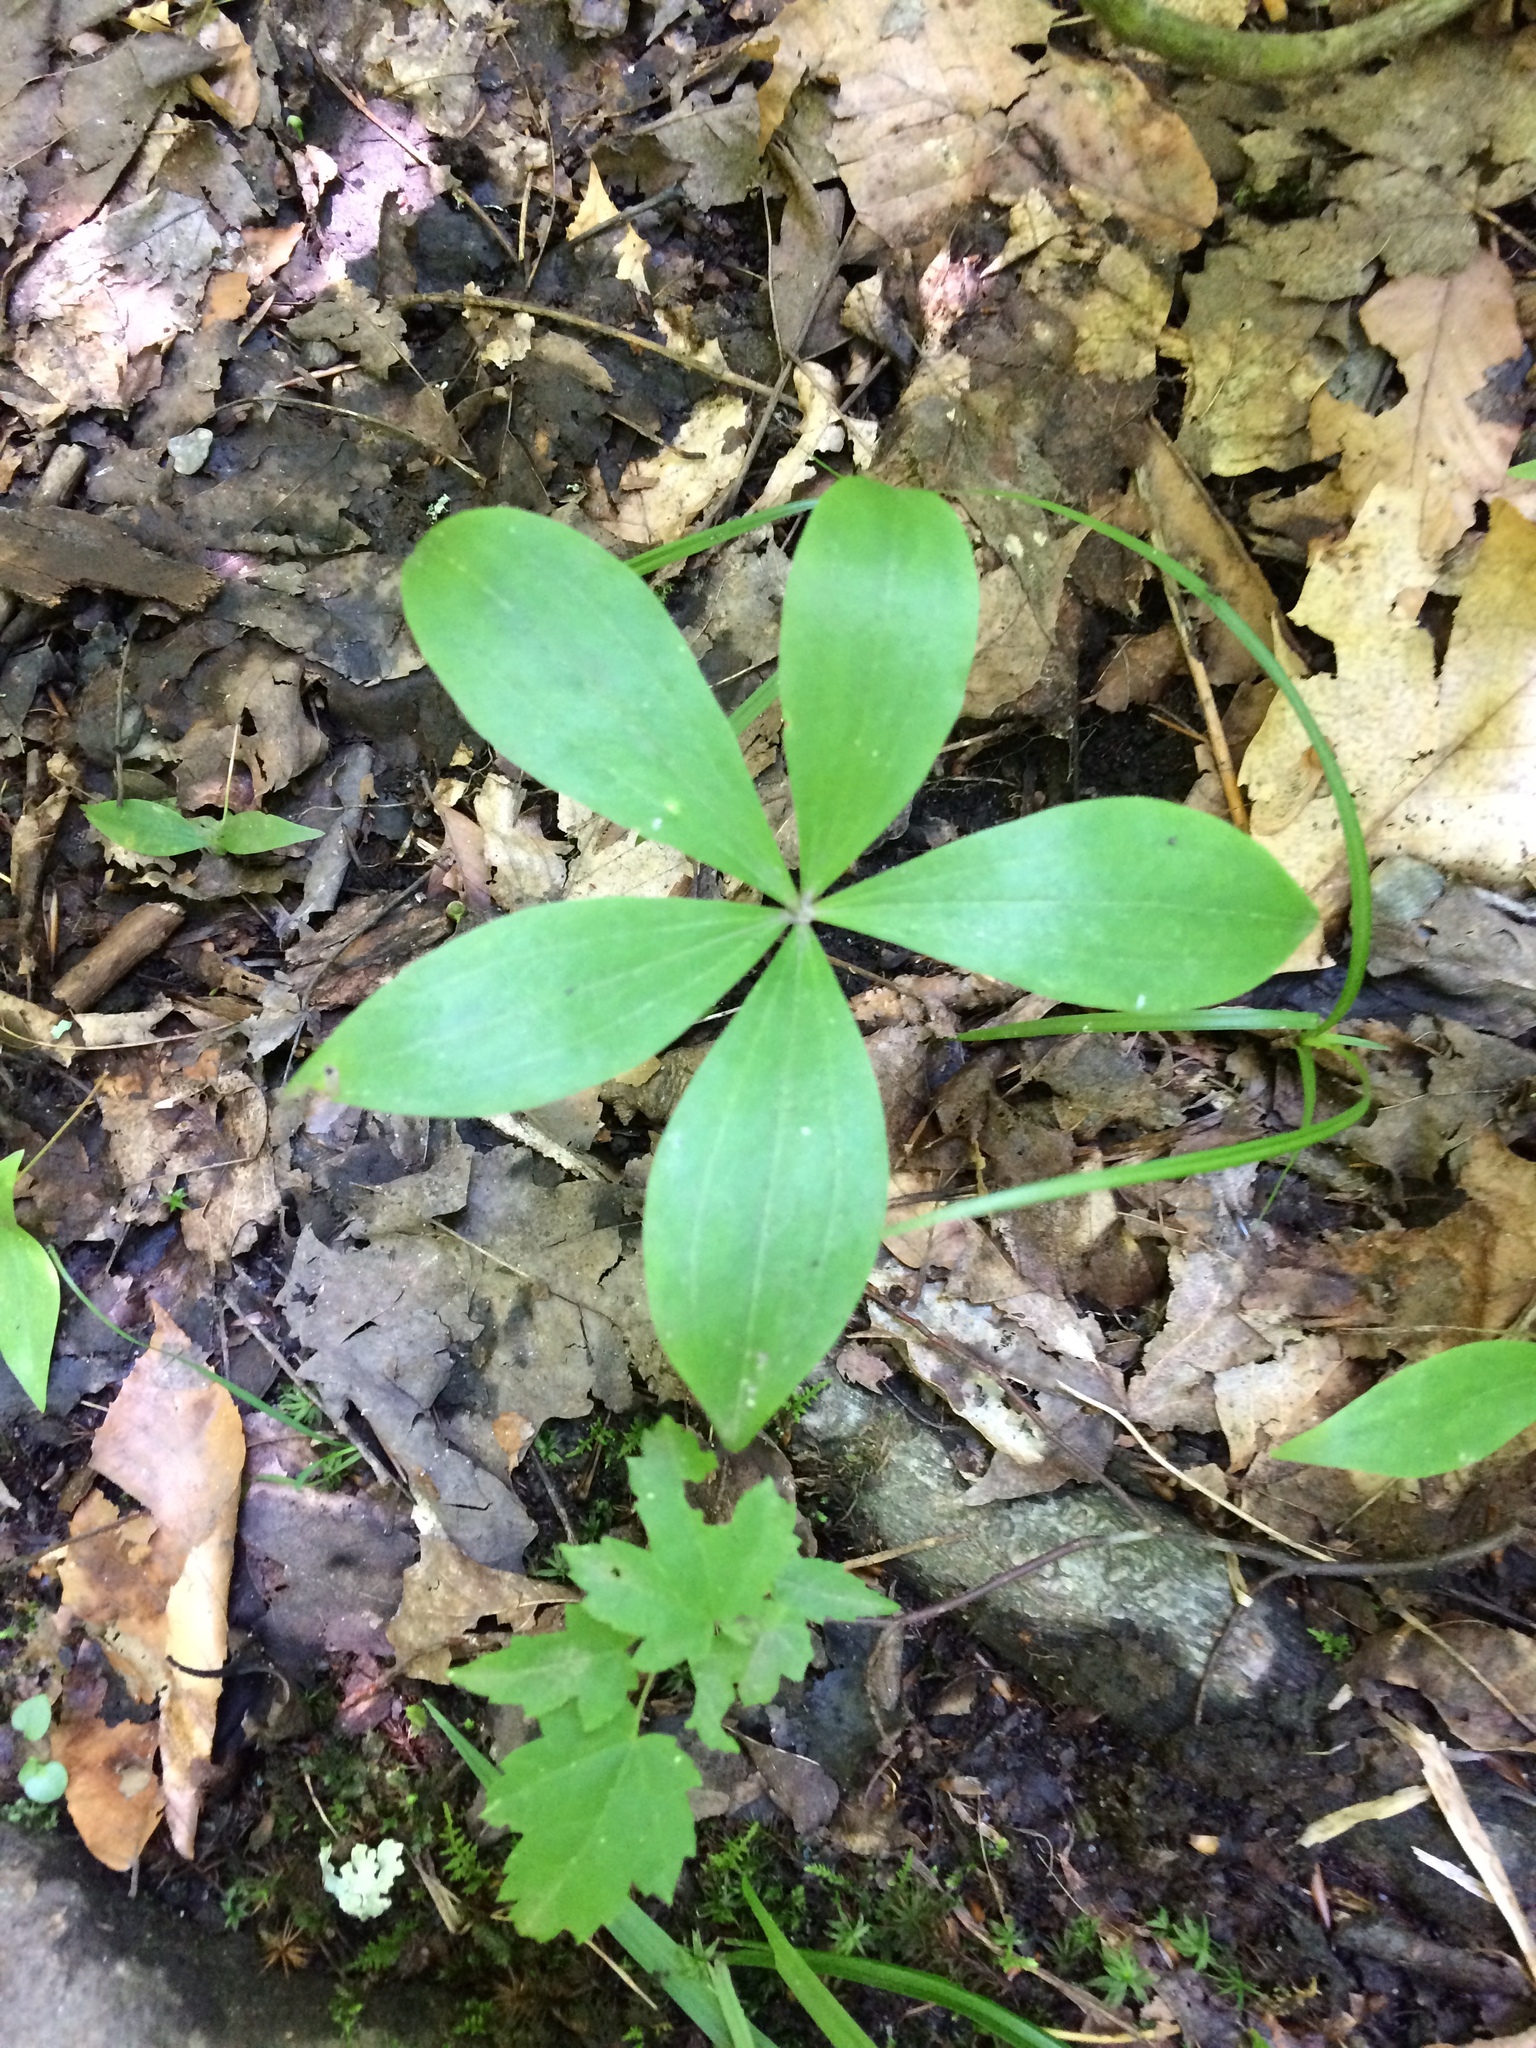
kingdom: Plantae
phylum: Tracheophyta
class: Liliopsida
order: Liliales
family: Liliaceae
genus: Medeola
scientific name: Medeola virginiana
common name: Indian cucumber-root
